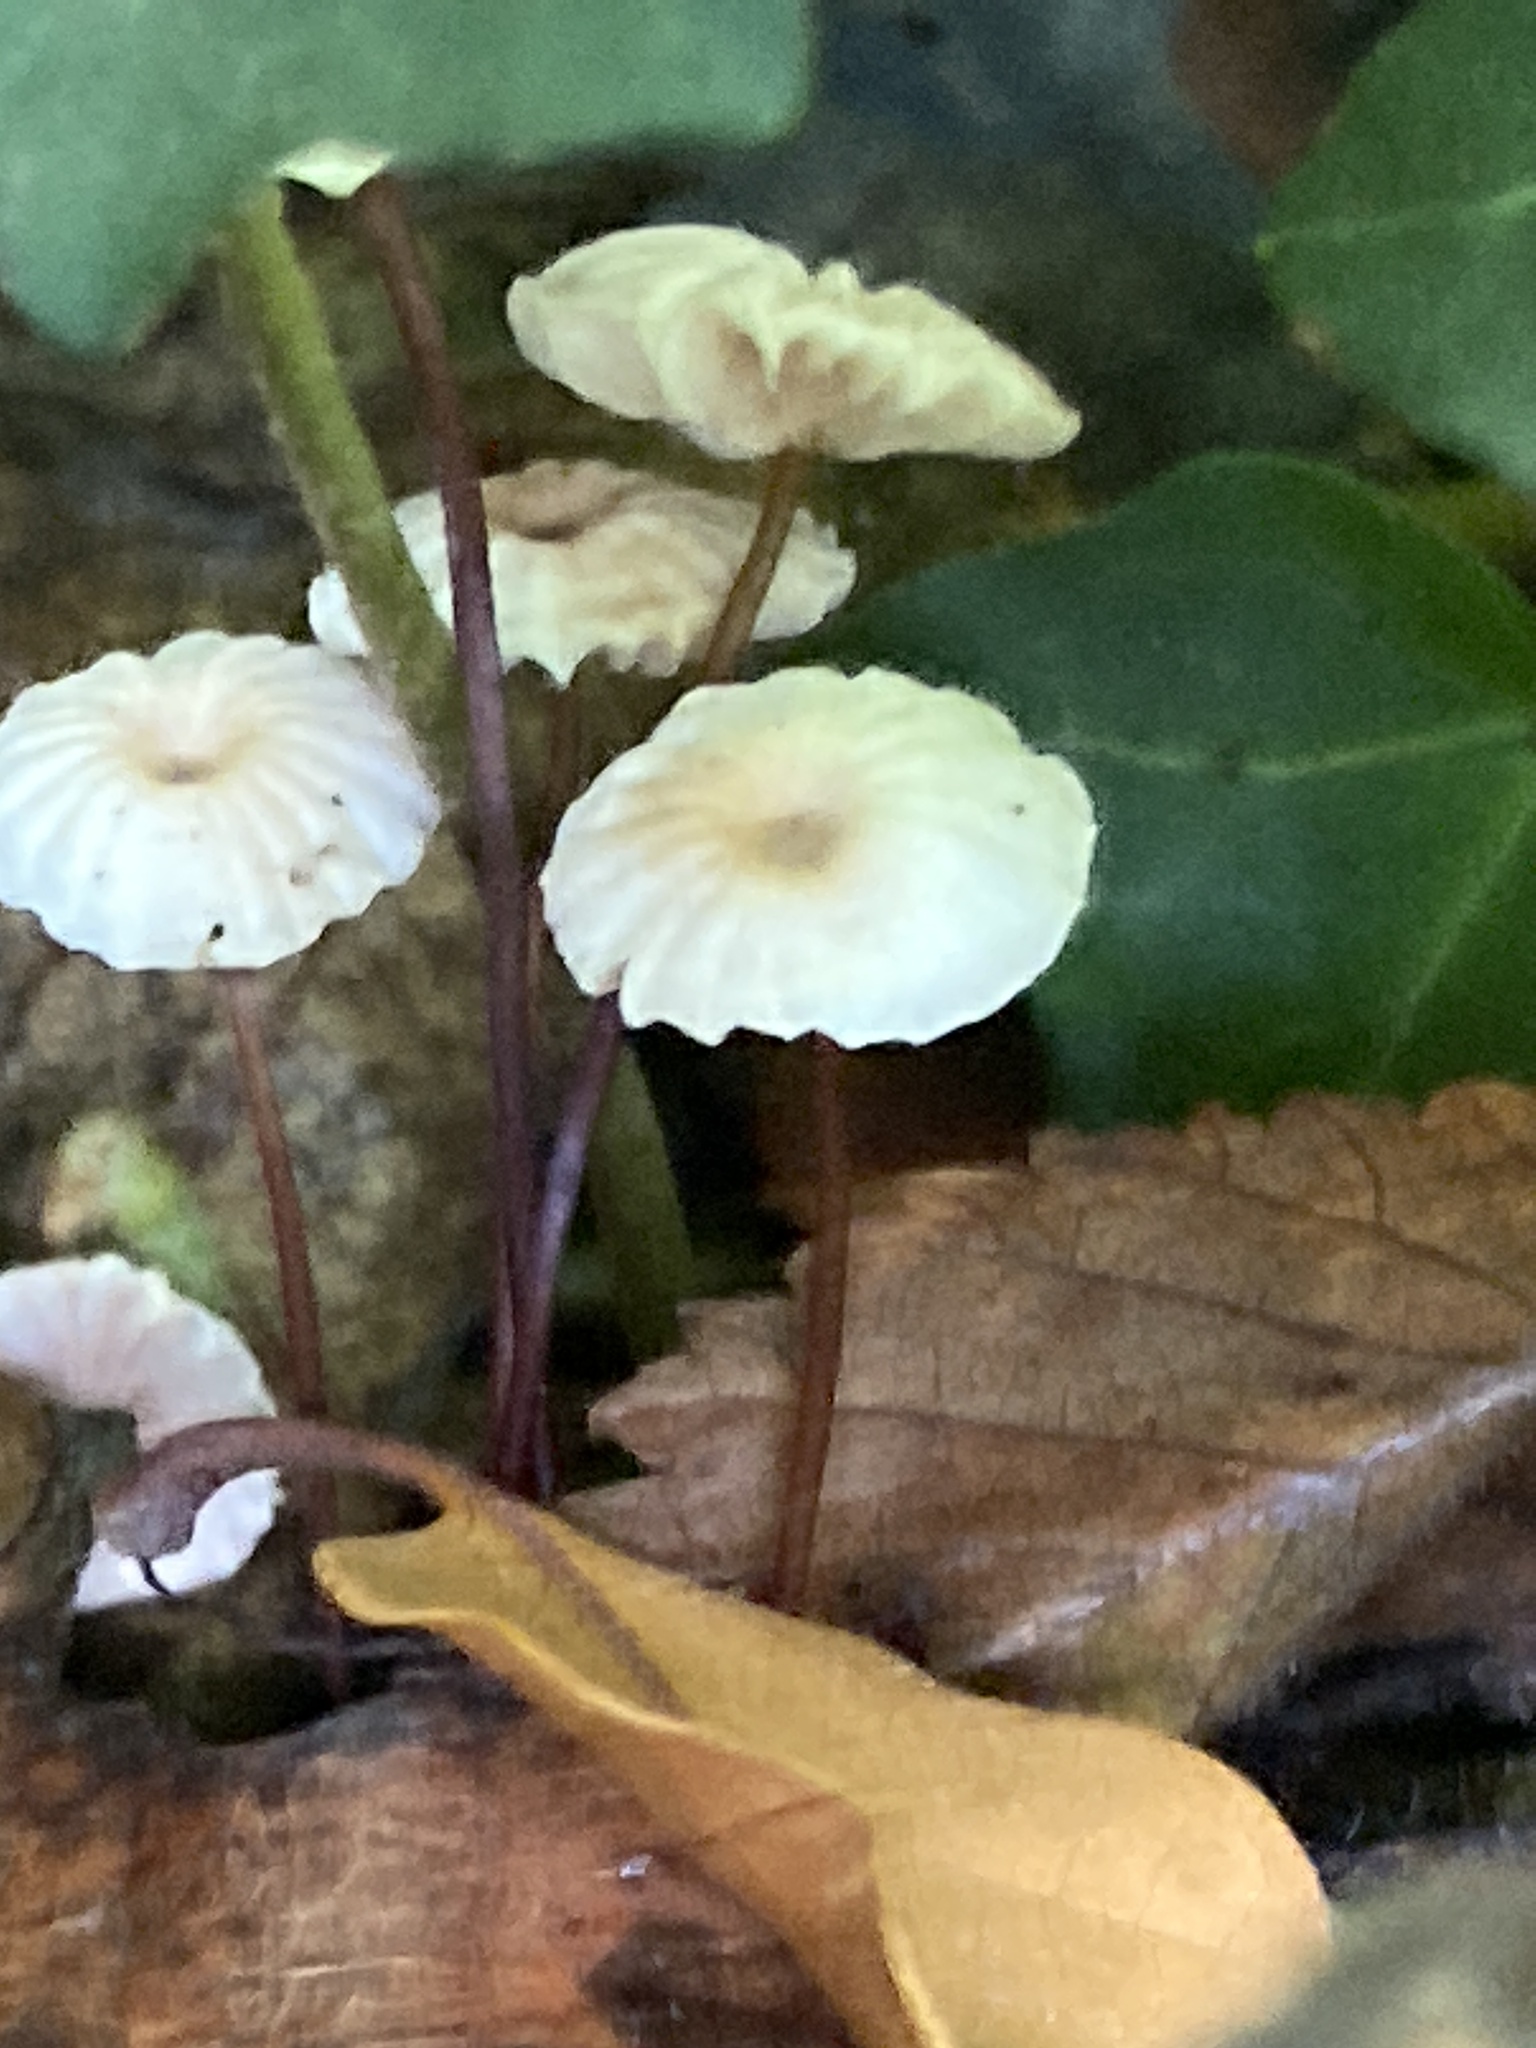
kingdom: Fungi
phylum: Basidiomycota
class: Agaricomycetes
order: Agaricales
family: Marasmiaceae
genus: Marasmius
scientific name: Marasmius rotula
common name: Collared parachute
